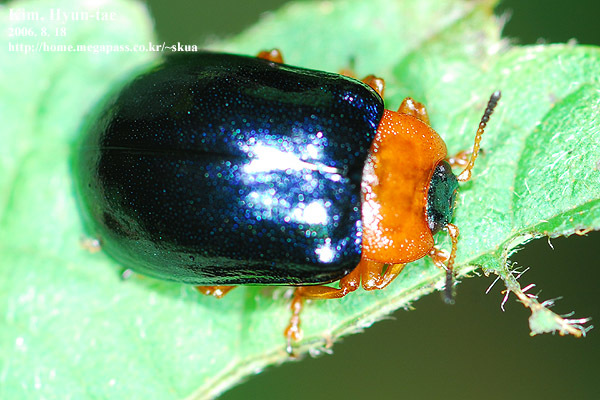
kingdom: Animalia
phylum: Arthropoda
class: Insecta
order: Coleoptera
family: Chrysomelidae
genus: Plagiosterna
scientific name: Plagiosterna adamsii
